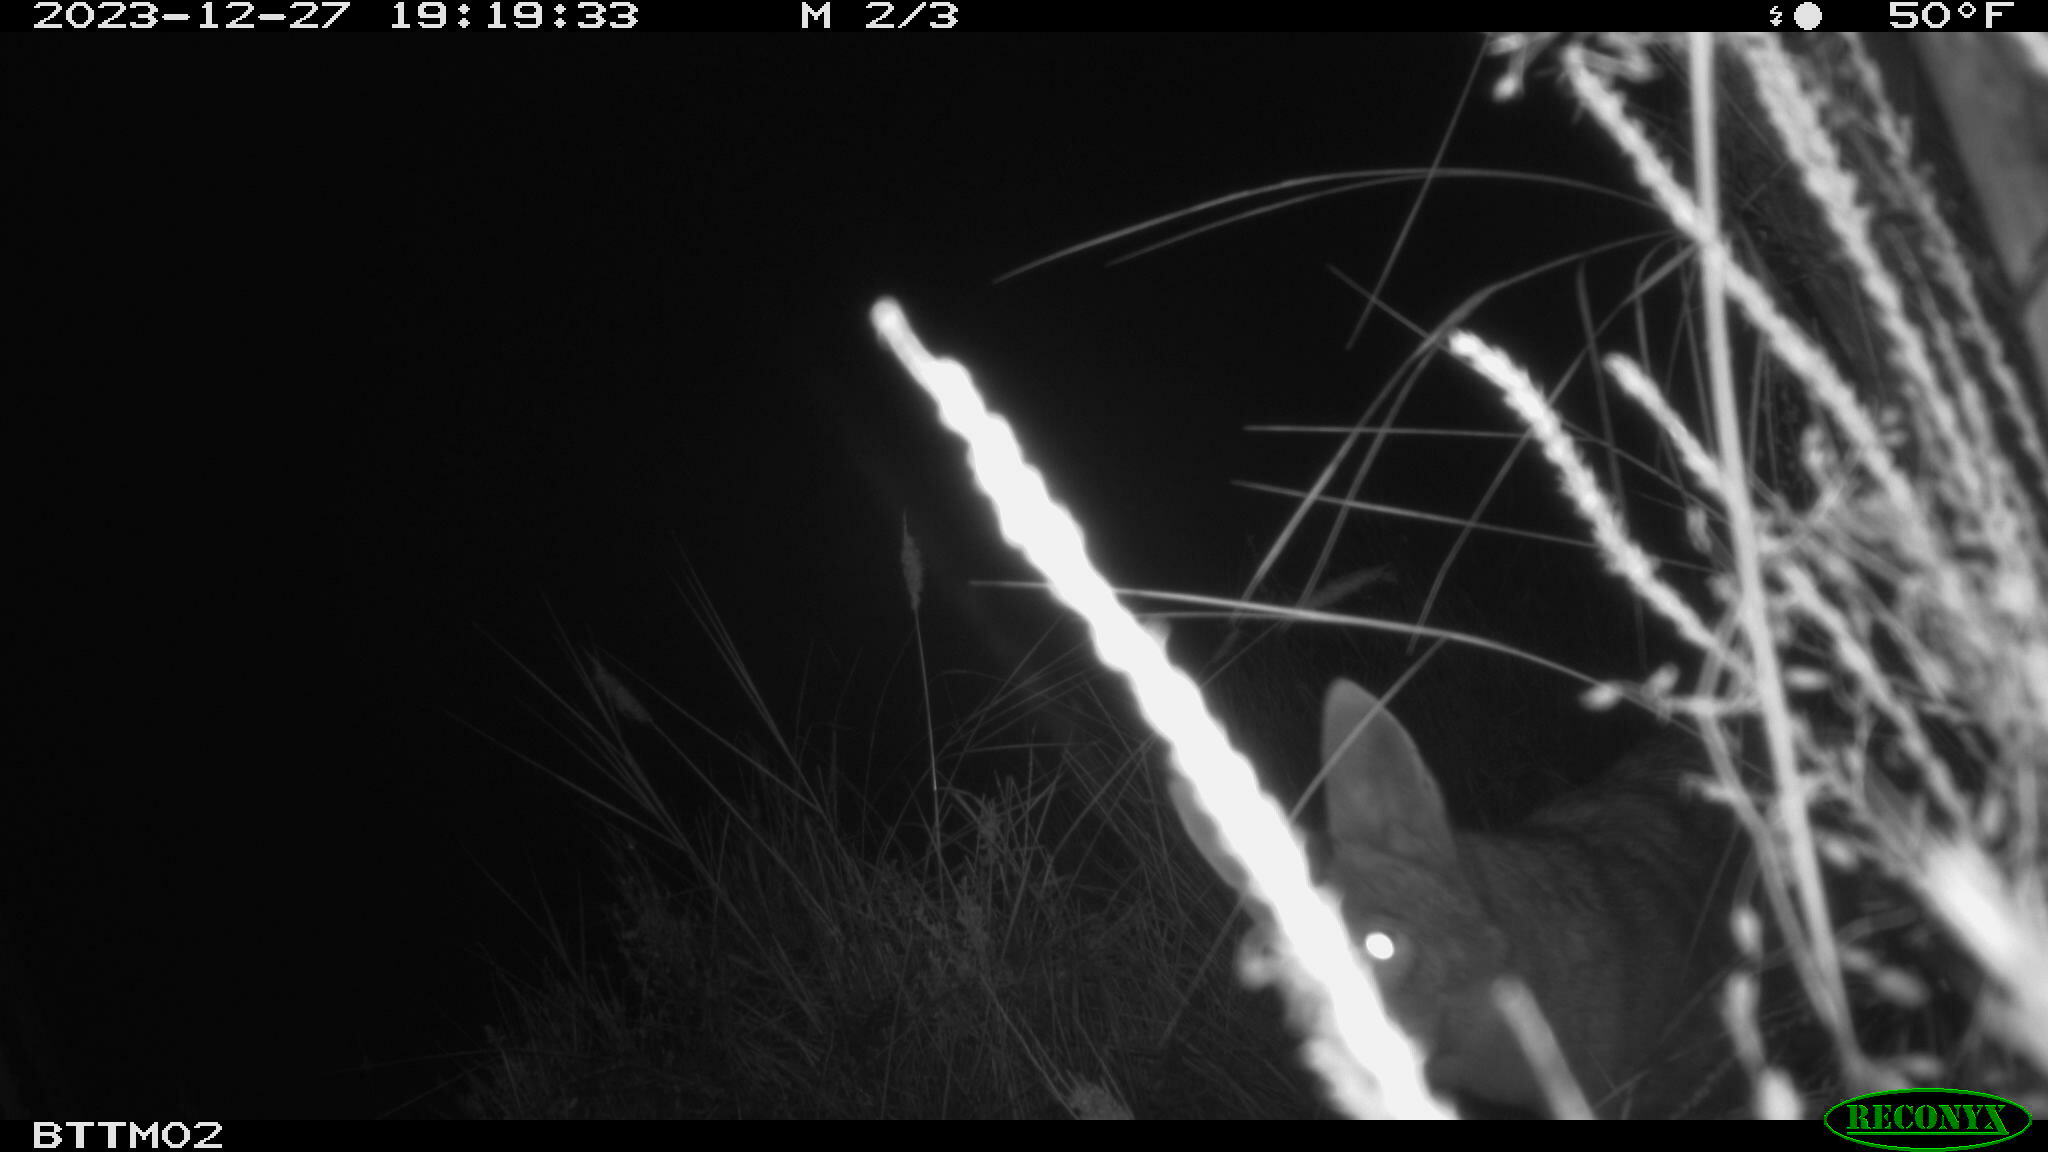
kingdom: Animalia
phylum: Chordata
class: Mammalia
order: Carnivora
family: Canidae
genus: Canis
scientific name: Canis latrans
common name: Coyote
